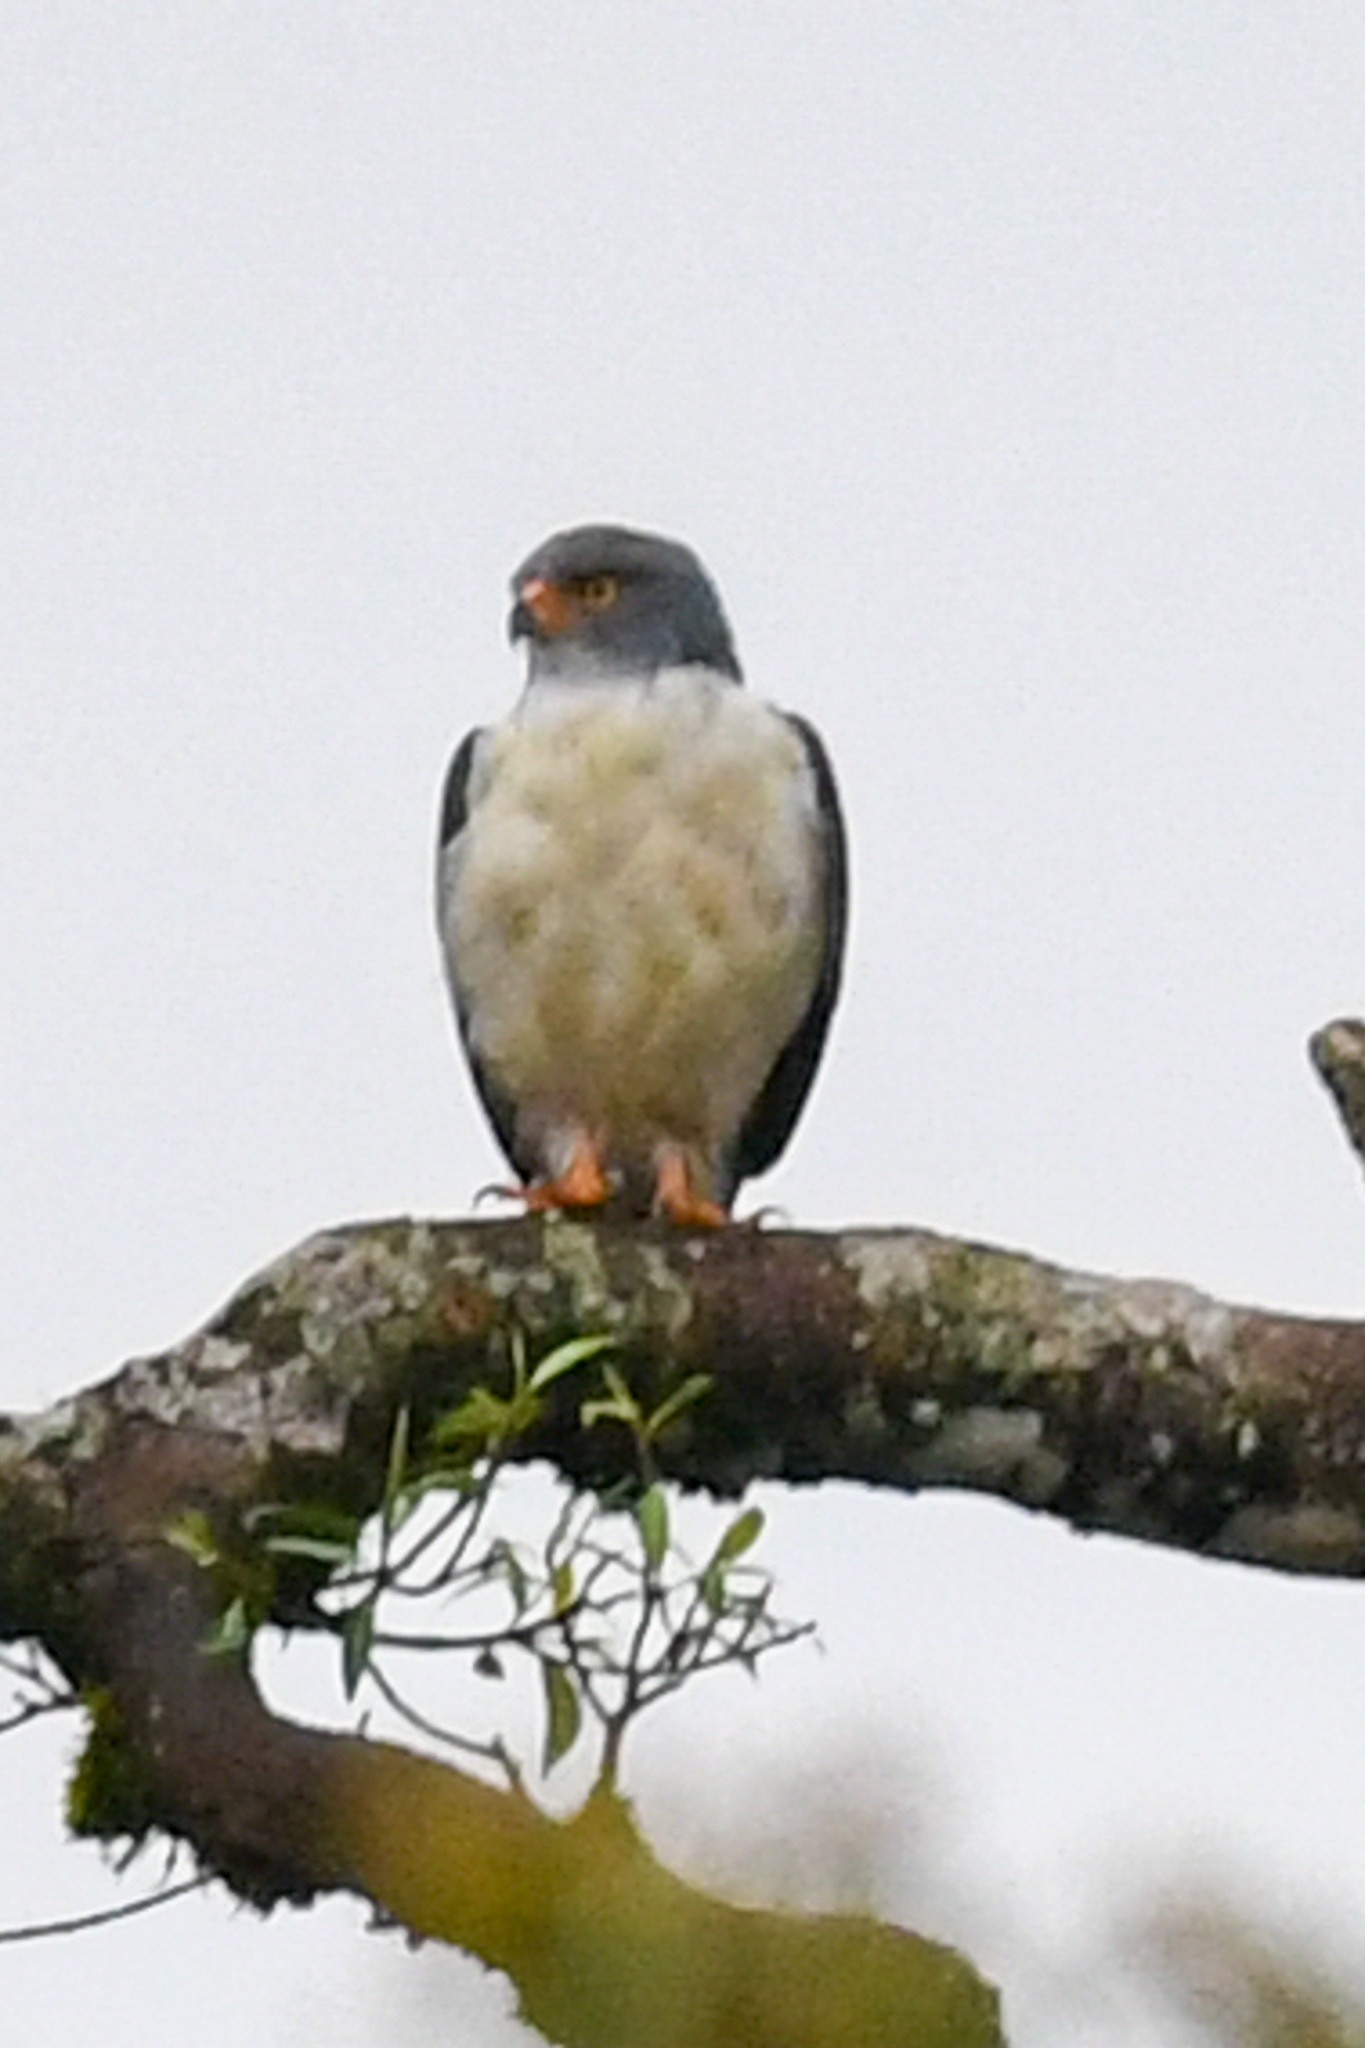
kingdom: Animalia
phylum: Chordata
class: Aves
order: Accipitriformes
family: Accipitridae
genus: Leucopternis
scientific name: Leucopternis semiplumbeus
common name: Semiplumbeous hawk
